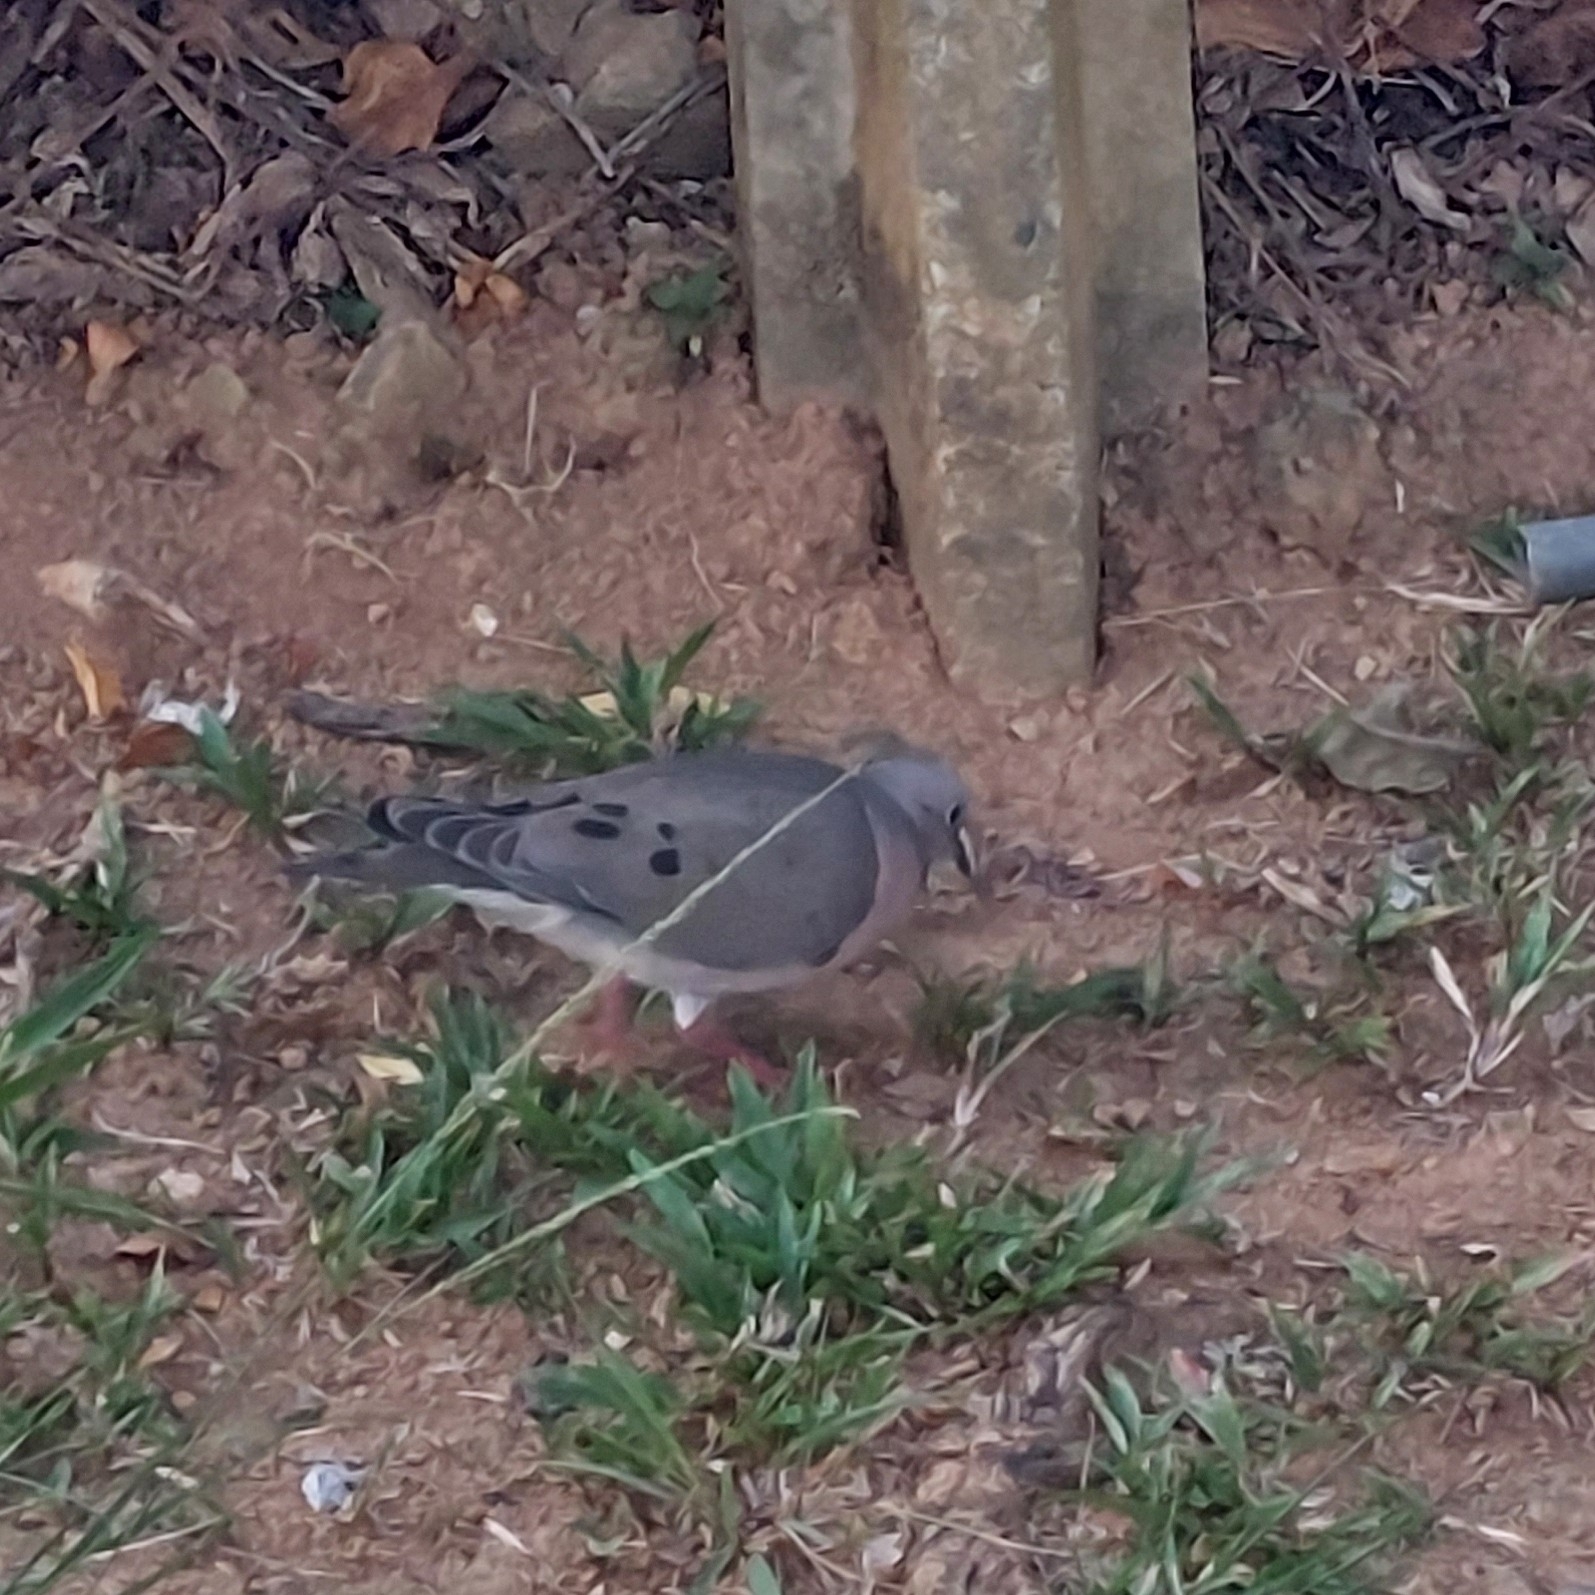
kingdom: Animalia
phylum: Chordata
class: Aves
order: Columbiformes
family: Columbidae
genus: Zenaida
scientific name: Zenaida auriculata
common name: Eared dove
